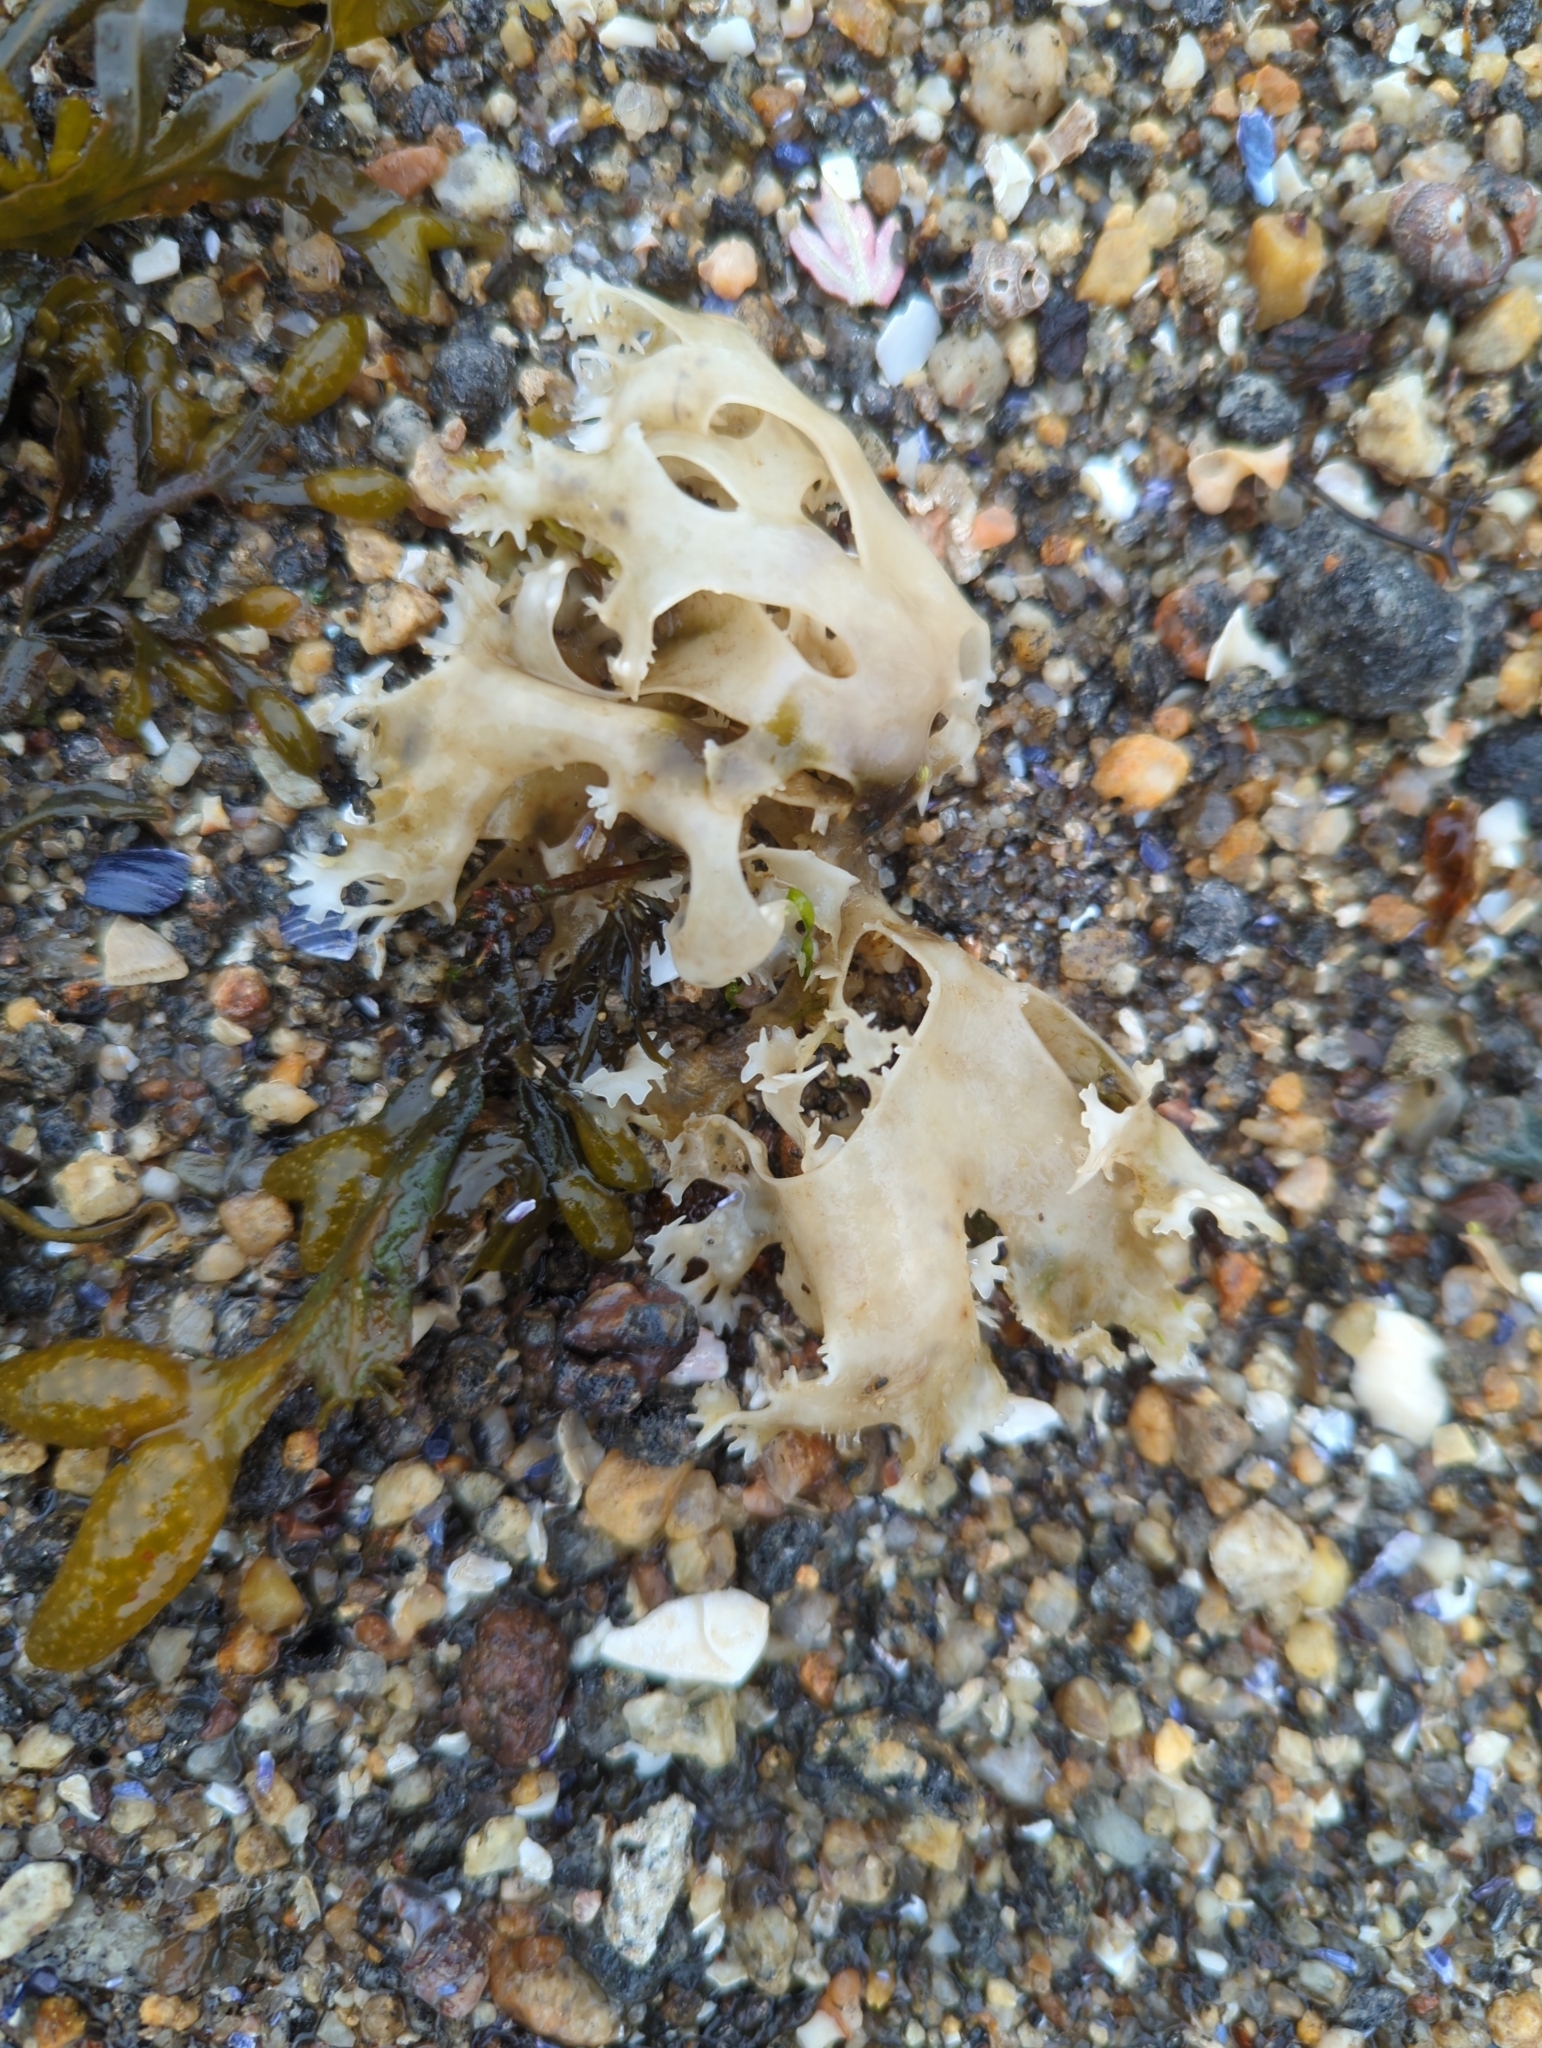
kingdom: Plantae
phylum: Rhodophyta
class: Florideophyceae
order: Gigartinales
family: Gigartinaceae
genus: Chondrus
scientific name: Chondrus crispus
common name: Carrageen
